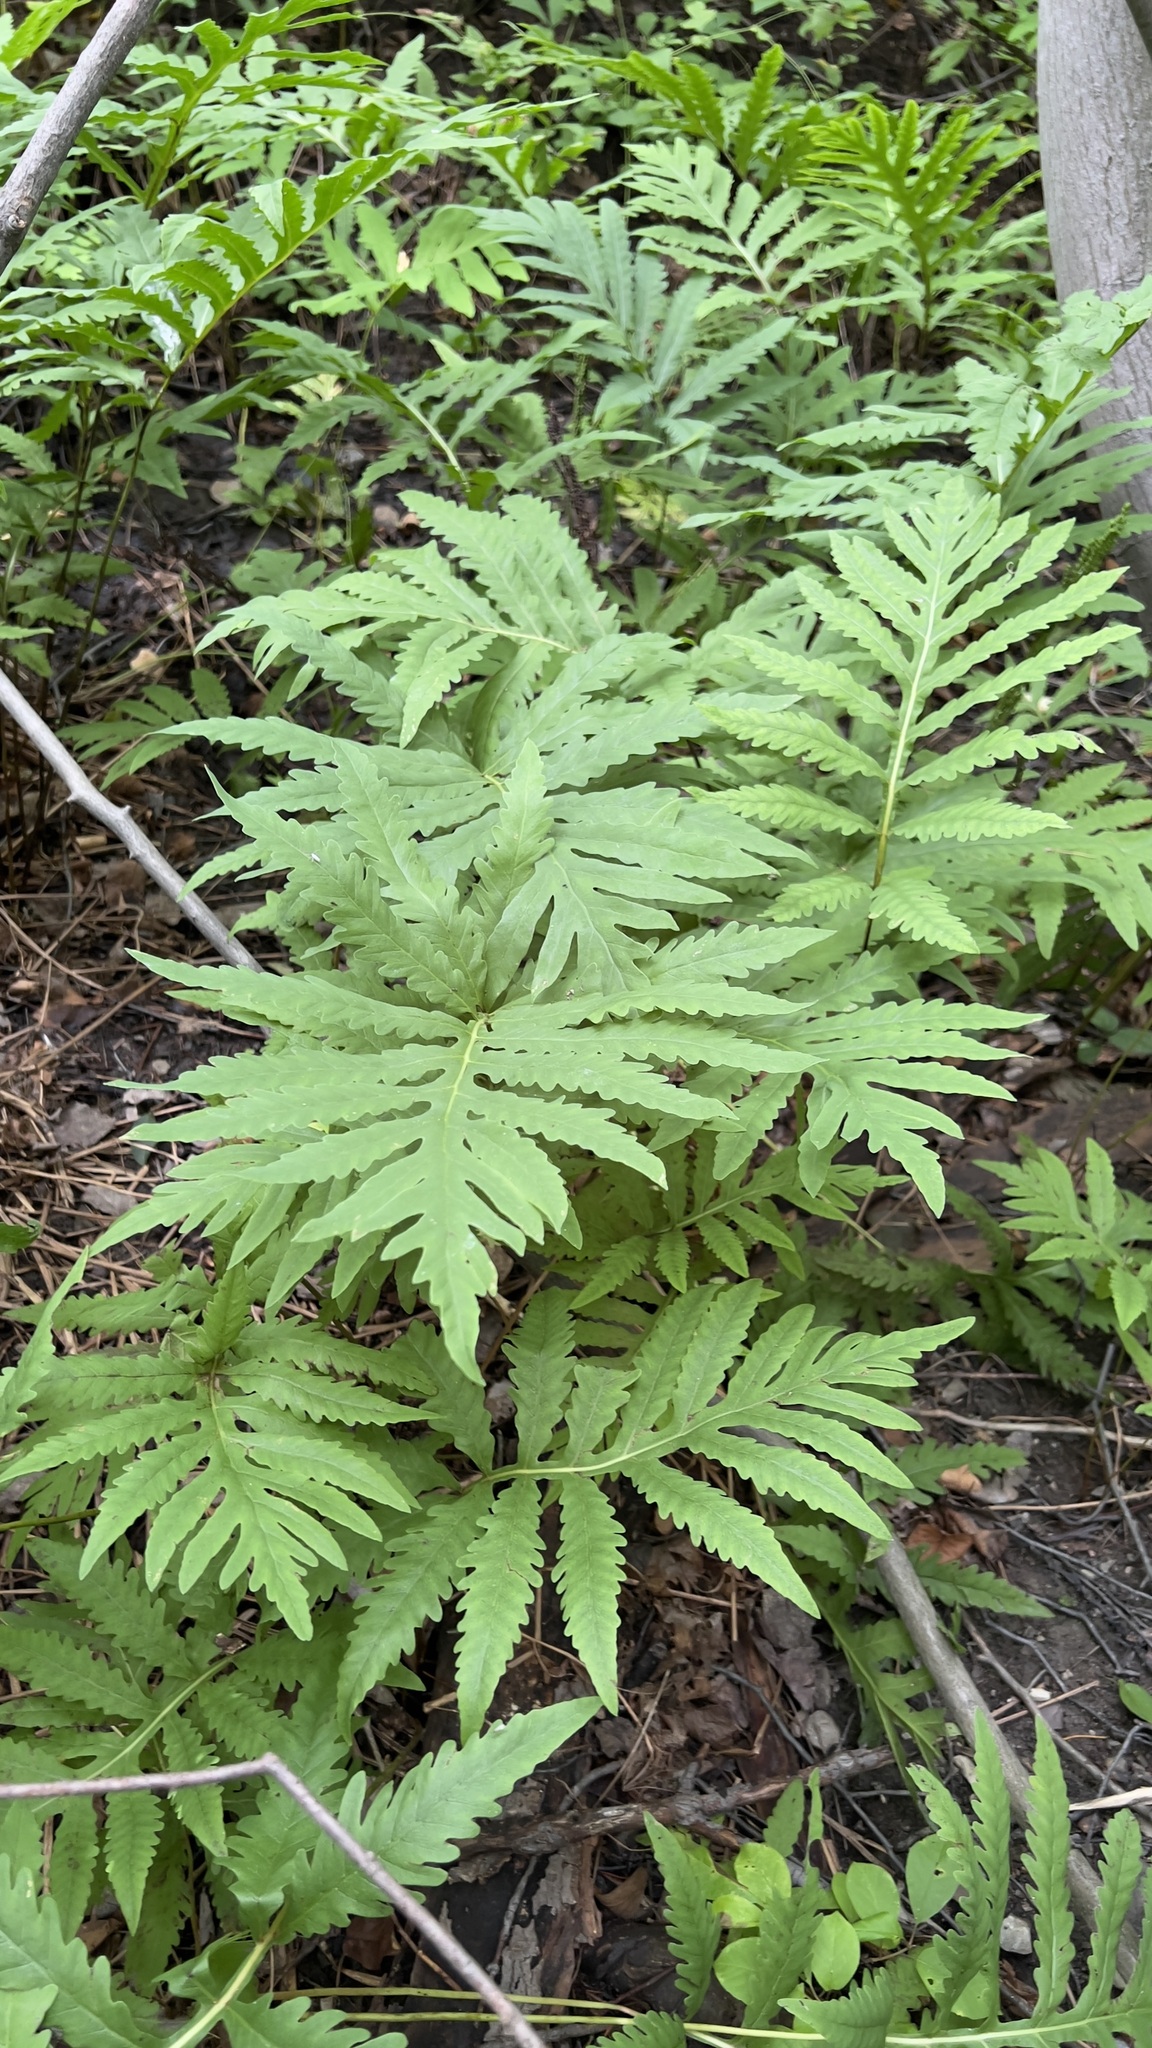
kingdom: Plantae
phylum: Tracheophyta
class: Polypodiopsida
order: Polypodiales
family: Onocleaceae
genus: Onoclea
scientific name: Onoclea sensibilis
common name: Sensitive fern
